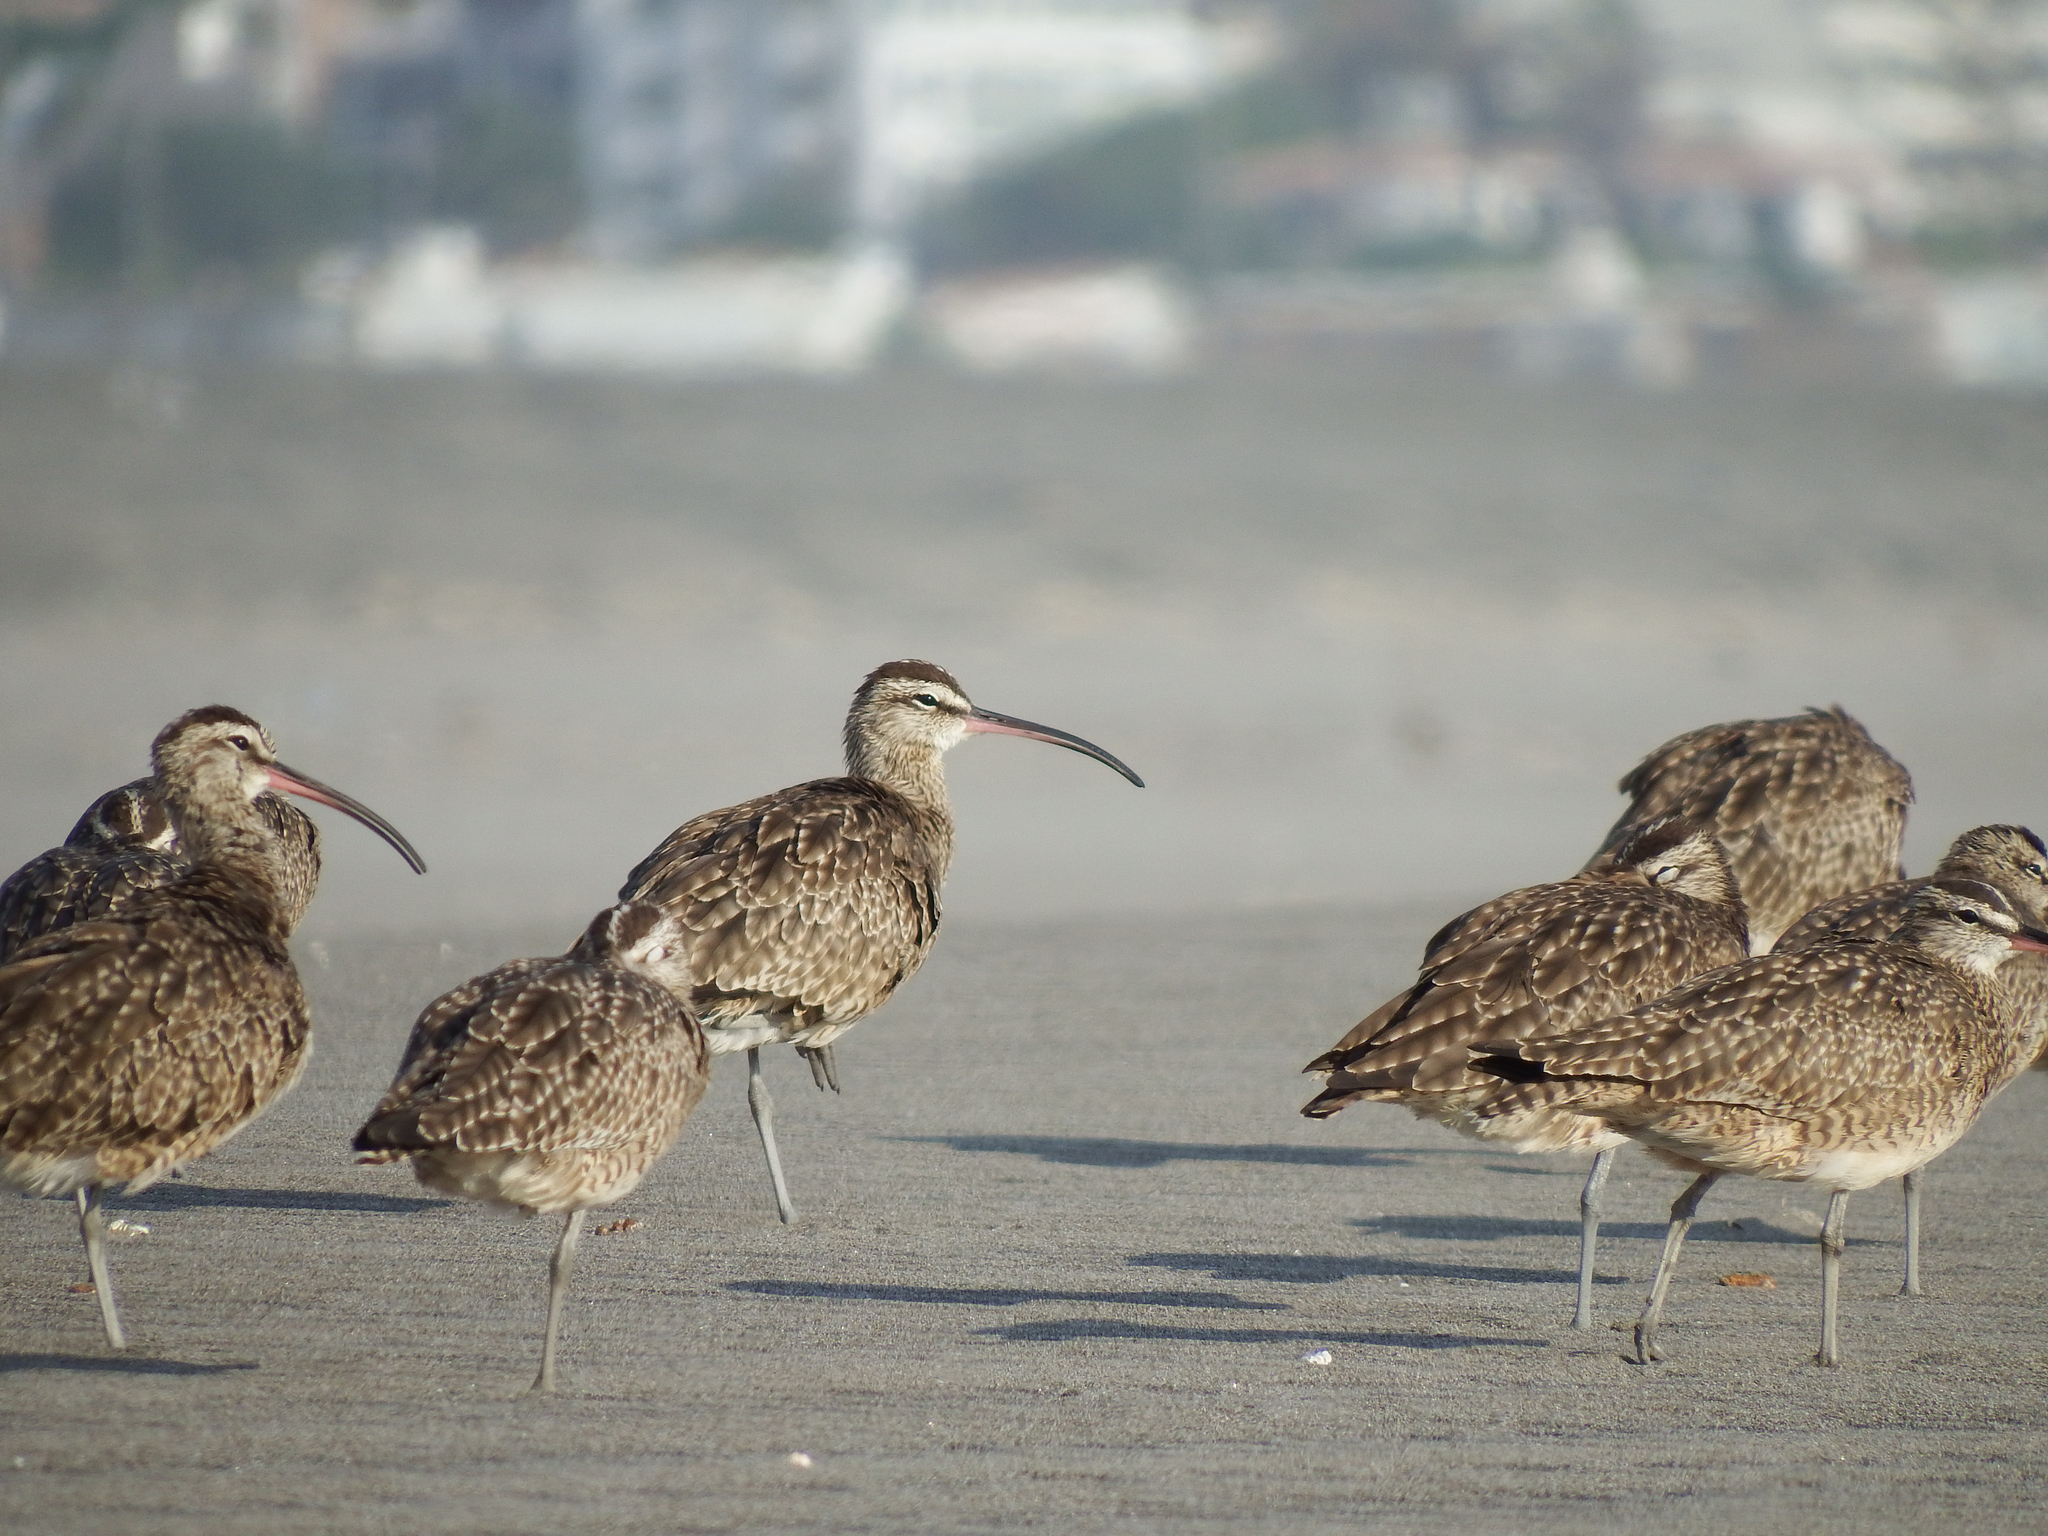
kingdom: Animalia
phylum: Chordata
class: Aves
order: Charadriiformes
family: Scolopacidae
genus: Numenius
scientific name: Numenius phaeopus
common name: Whimbrel
